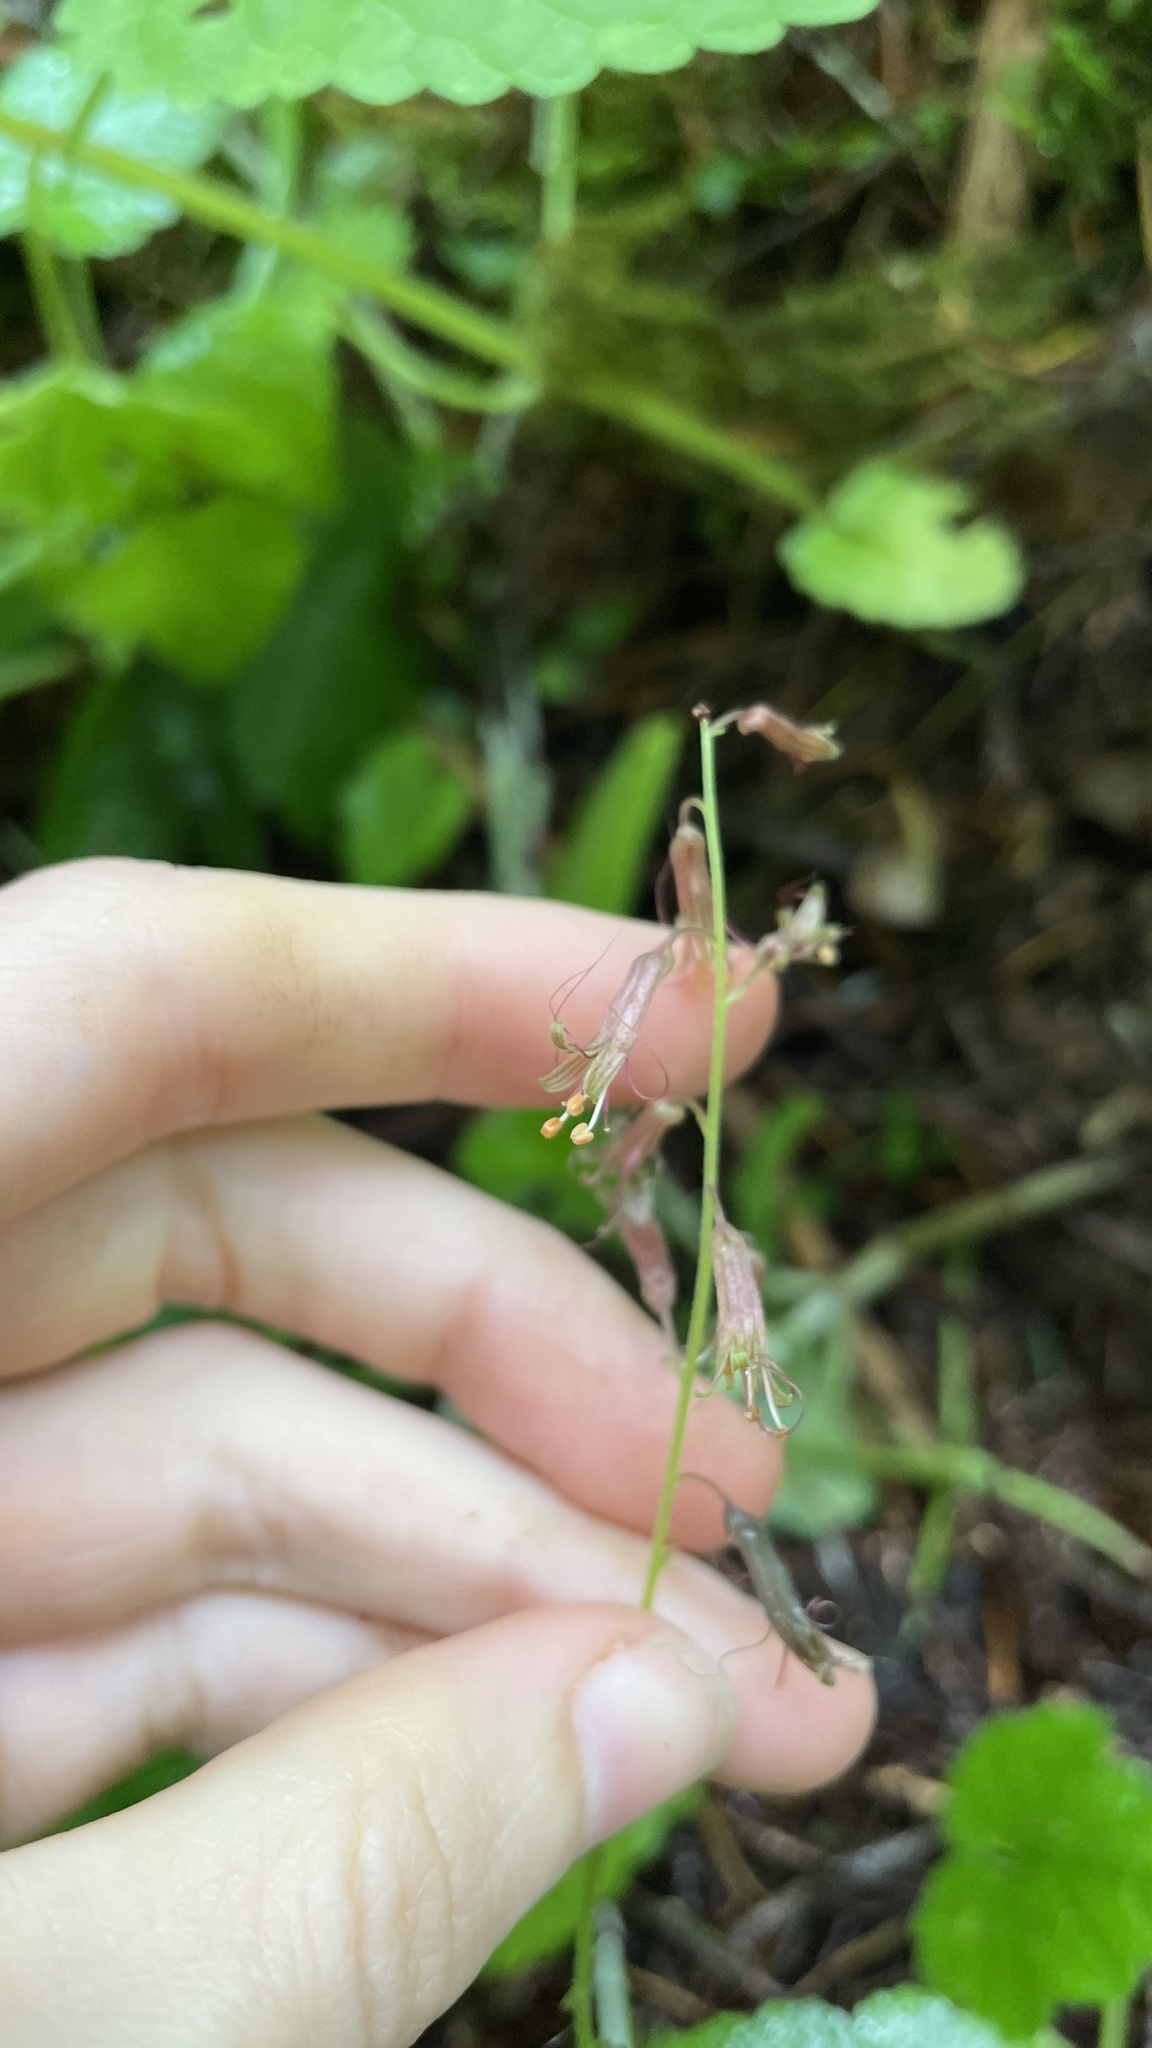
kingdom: Plantae
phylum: Tracheophyta
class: Magnoliopsida
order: Saxifragales
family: Saxifragaceae
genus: Tolmiea
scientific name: Tolmiea menziesii
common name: Pick-a-back-plant
